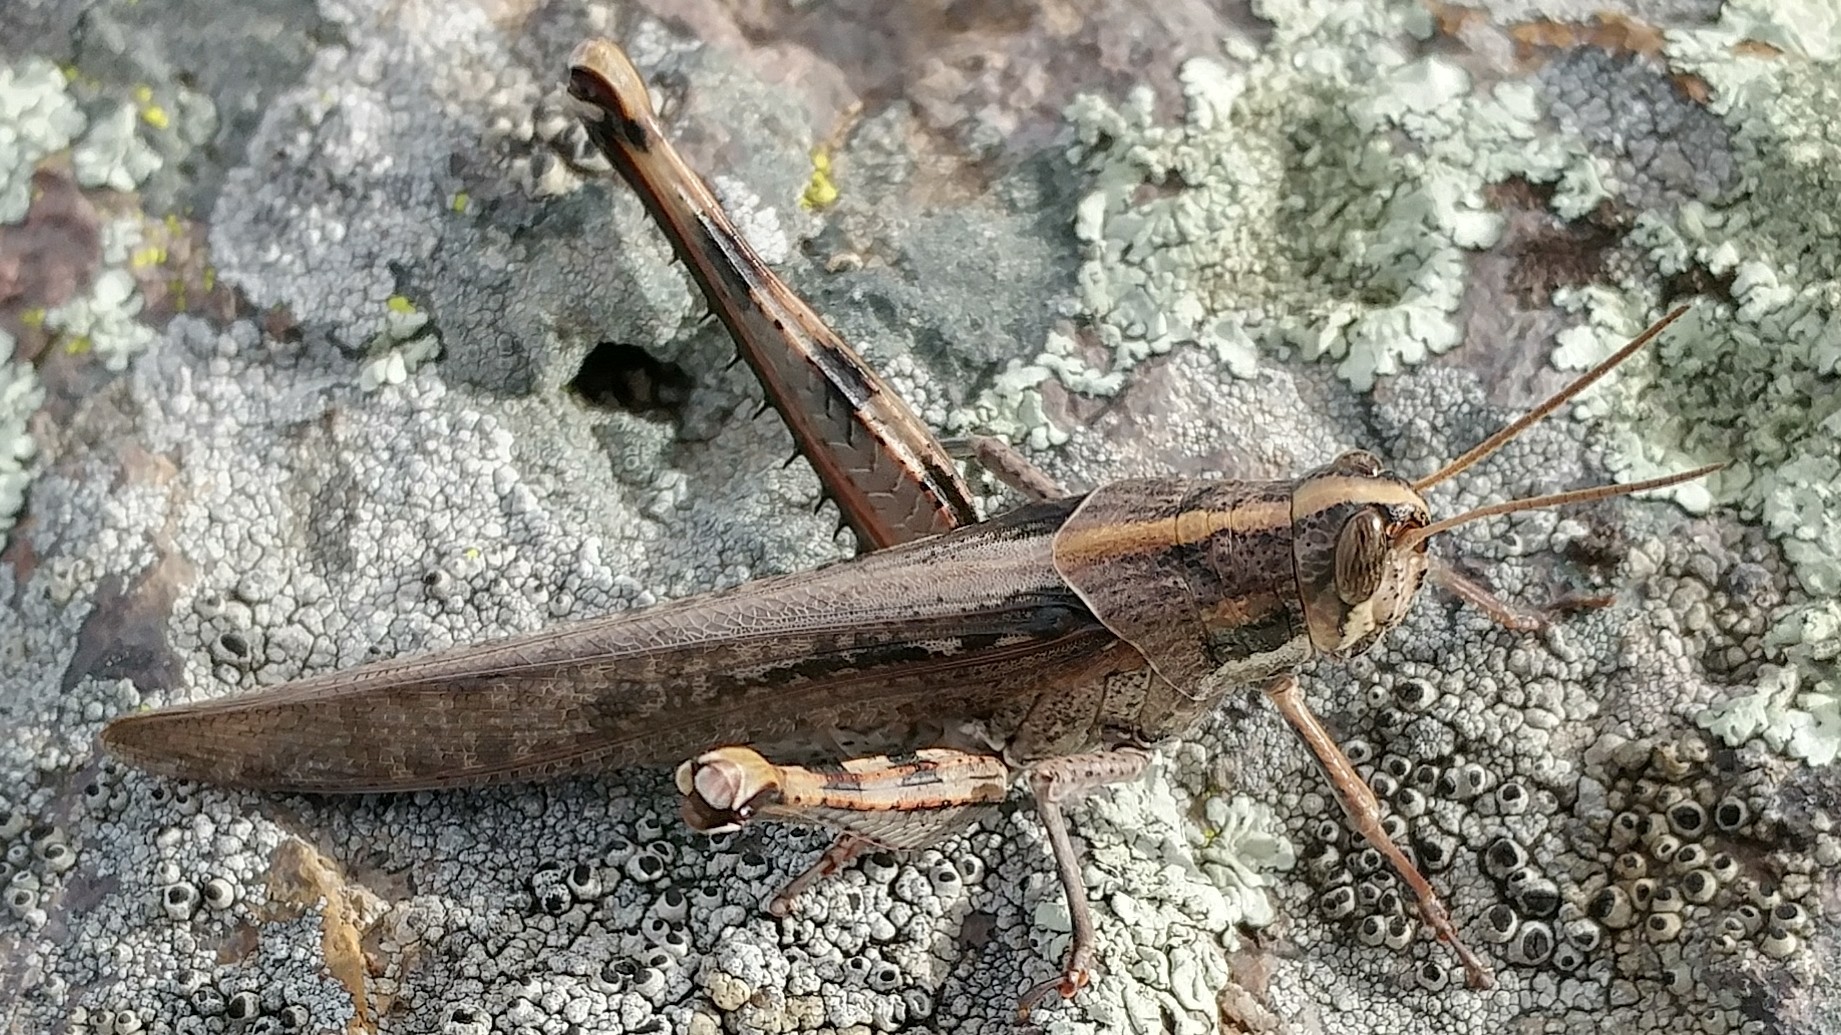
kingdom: Animalia
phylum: Arthropoda
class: Insecta
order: Orthoptera
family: Acrididae
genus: Schistocerca
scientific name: Schistocerca nitens
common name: Vagrant grasshopper
